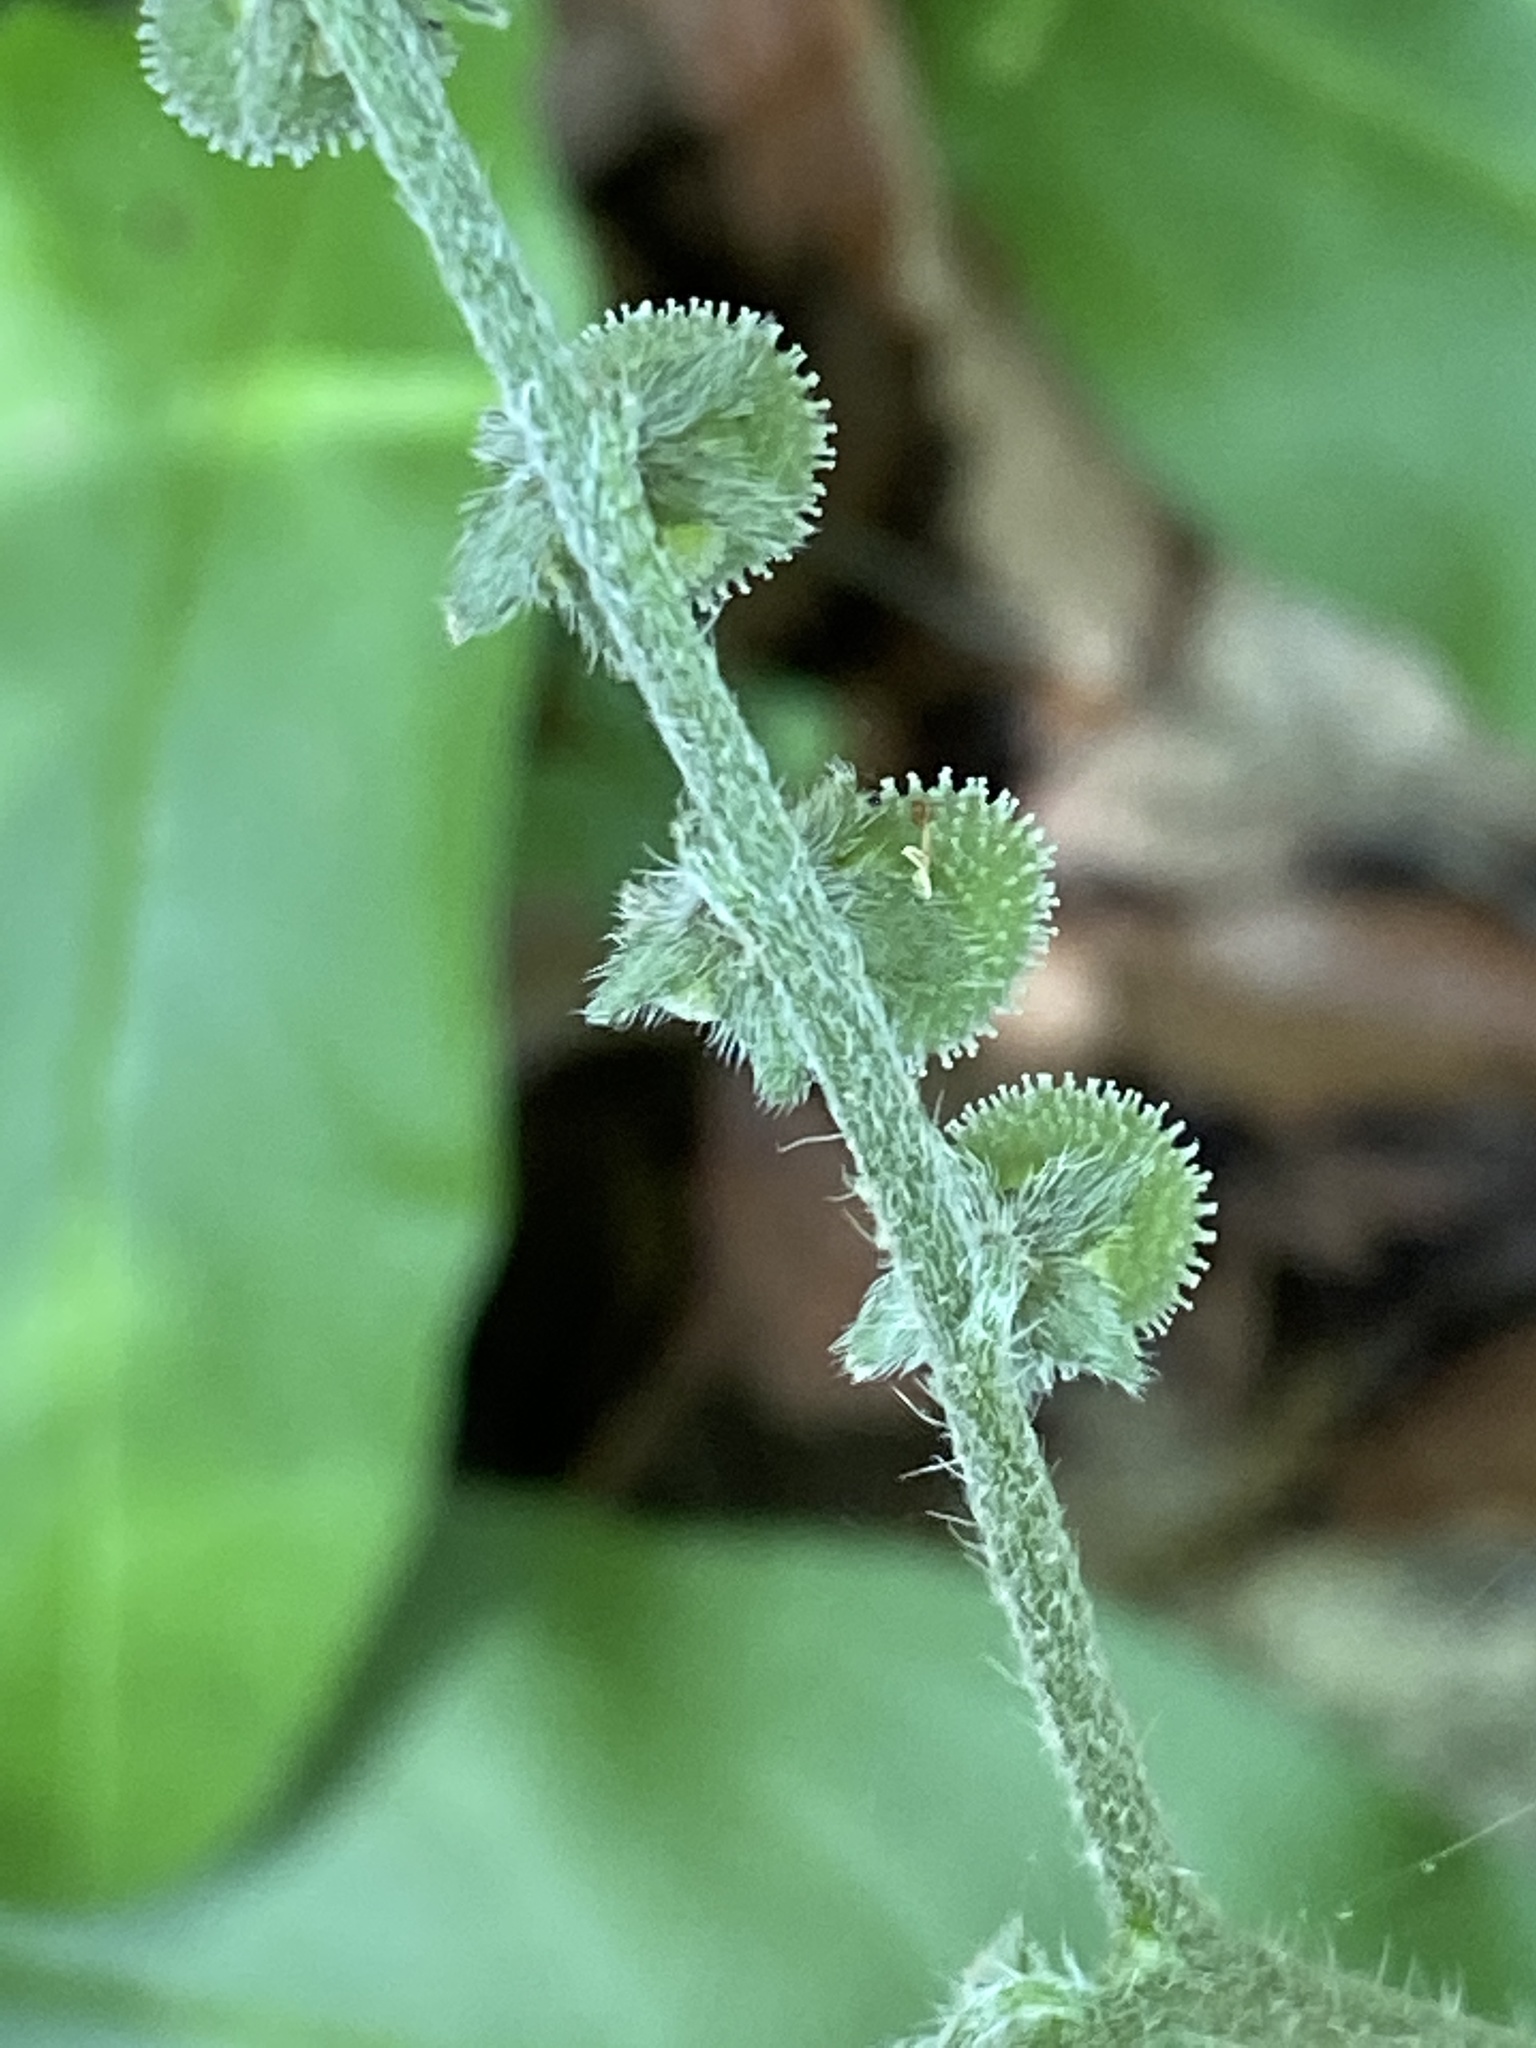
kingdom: Plantae
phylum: Tracheophyta
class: Magnoliopsida
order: Boraginales
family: Boraginaceae
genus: Andersonglossum
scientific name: Andersonglossum virginianum
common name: Wild comfrey
